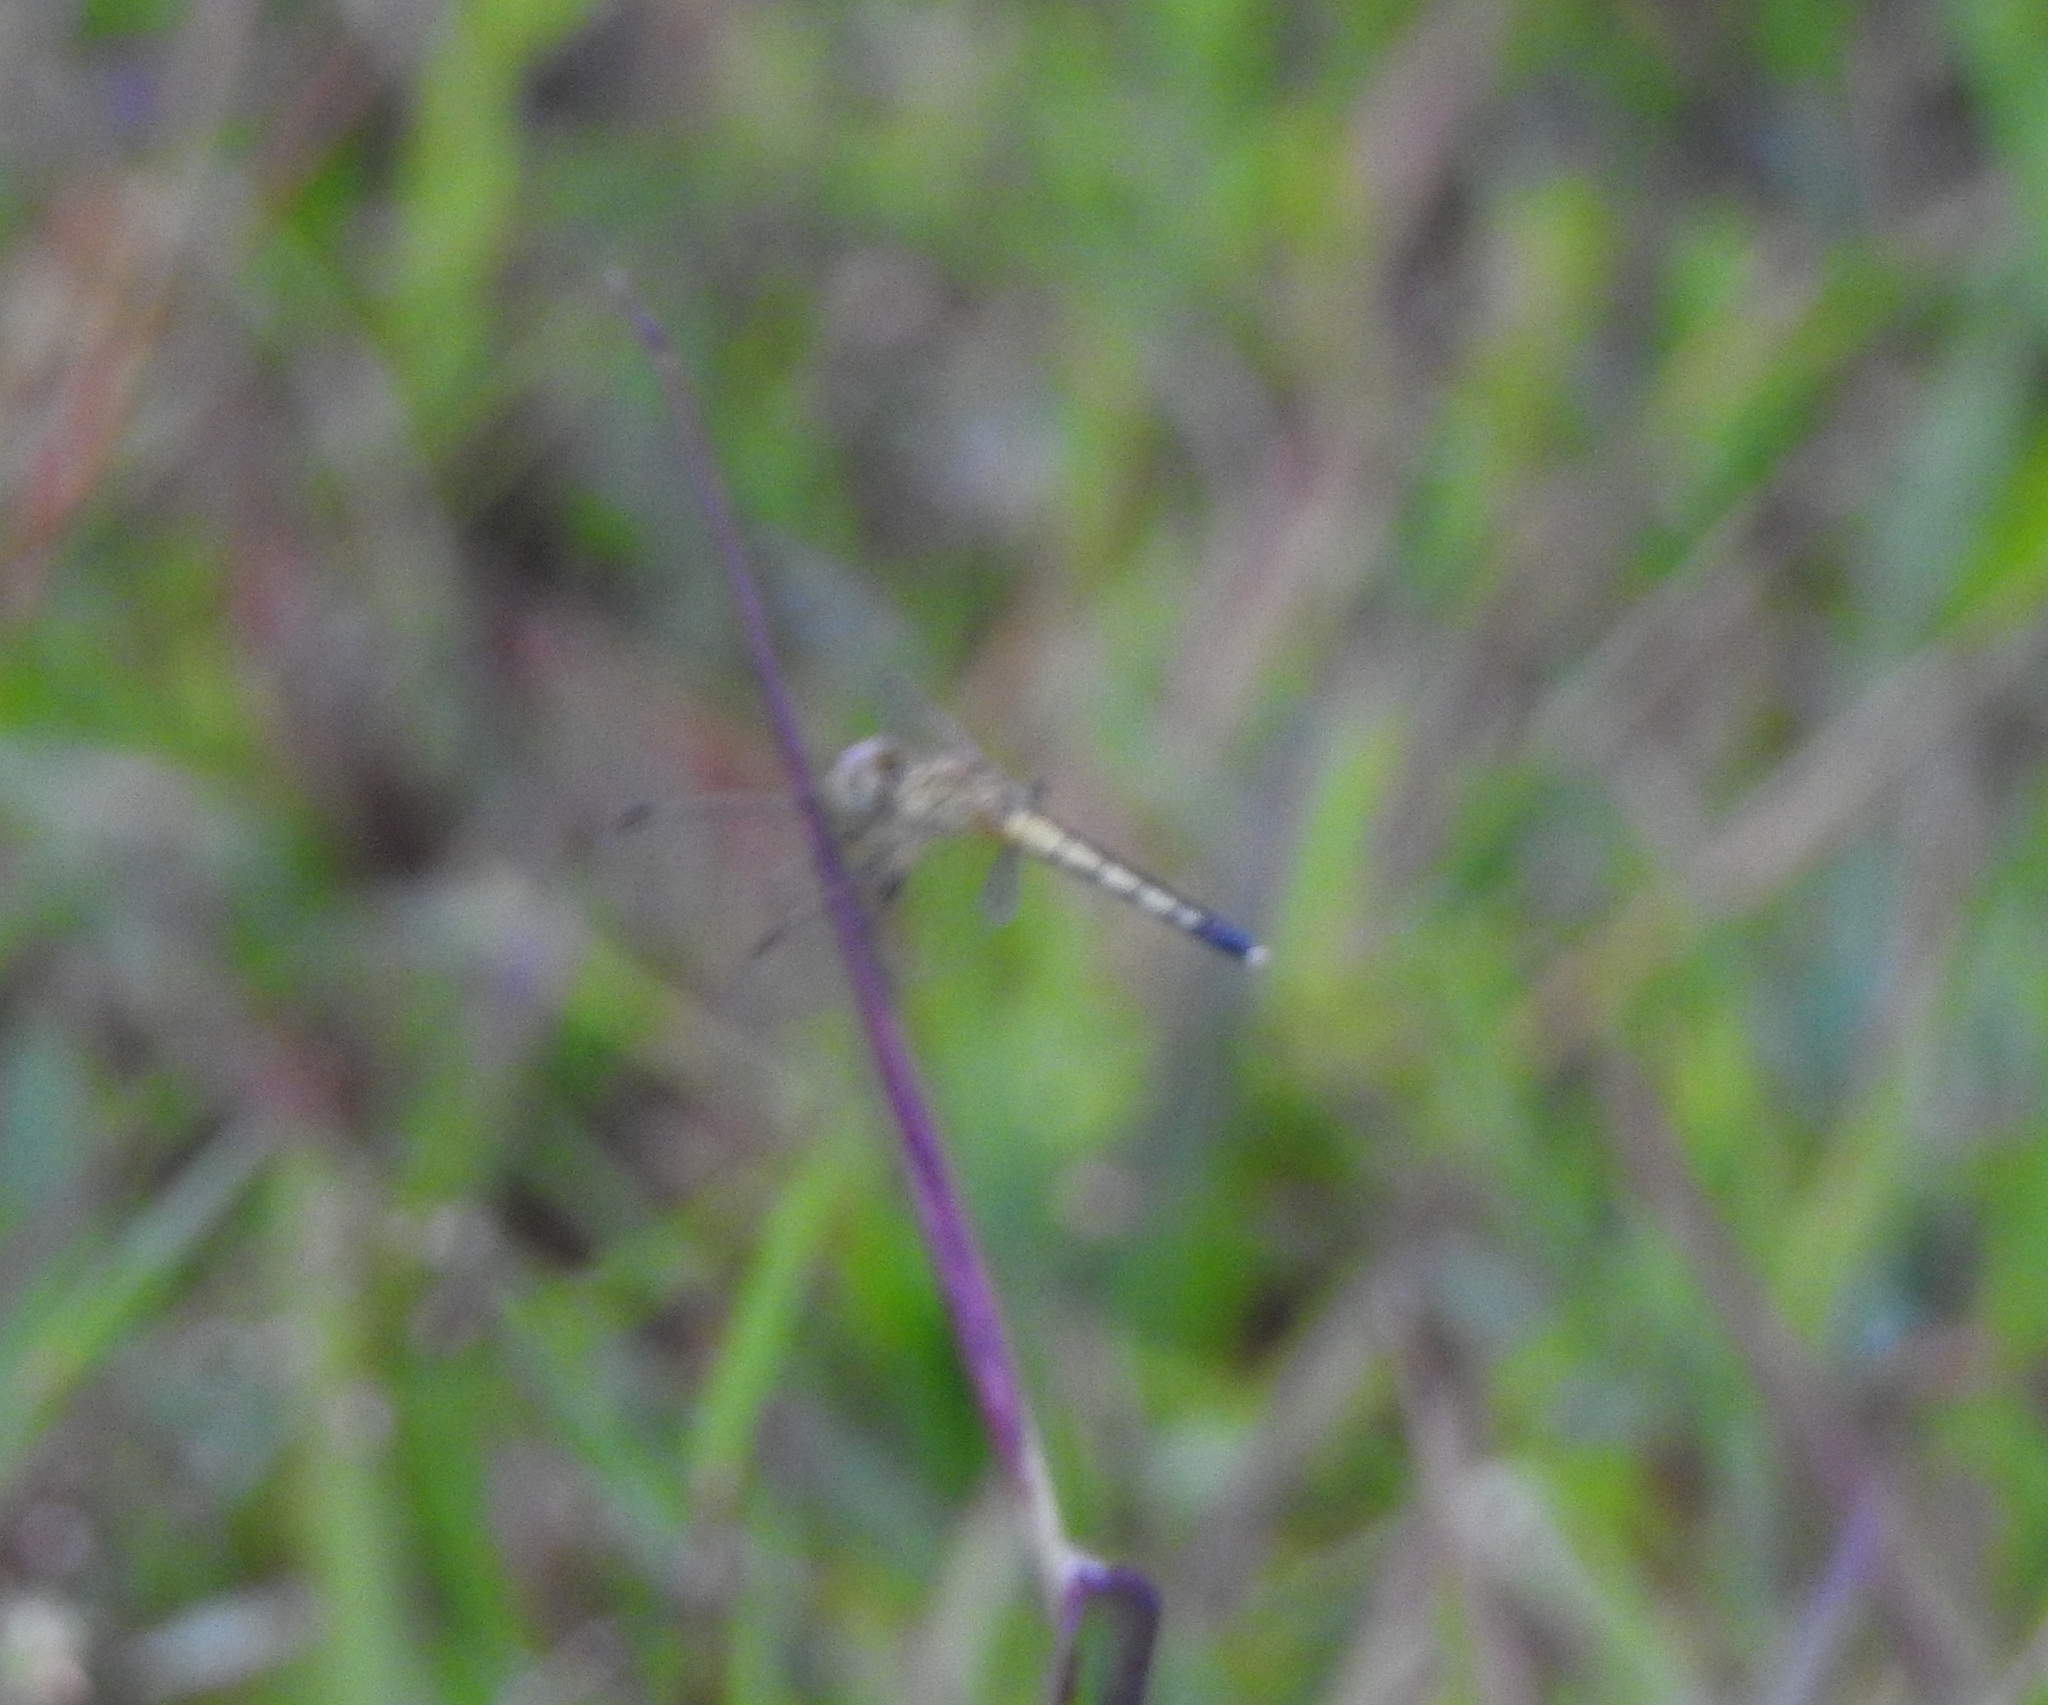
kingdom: Animalia
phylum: Arthropoda
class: Insecta
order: Odonata
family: Libellulidae
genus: Diplacodes
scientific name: Diplacodes nebulosa
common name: Black-tipped percher
